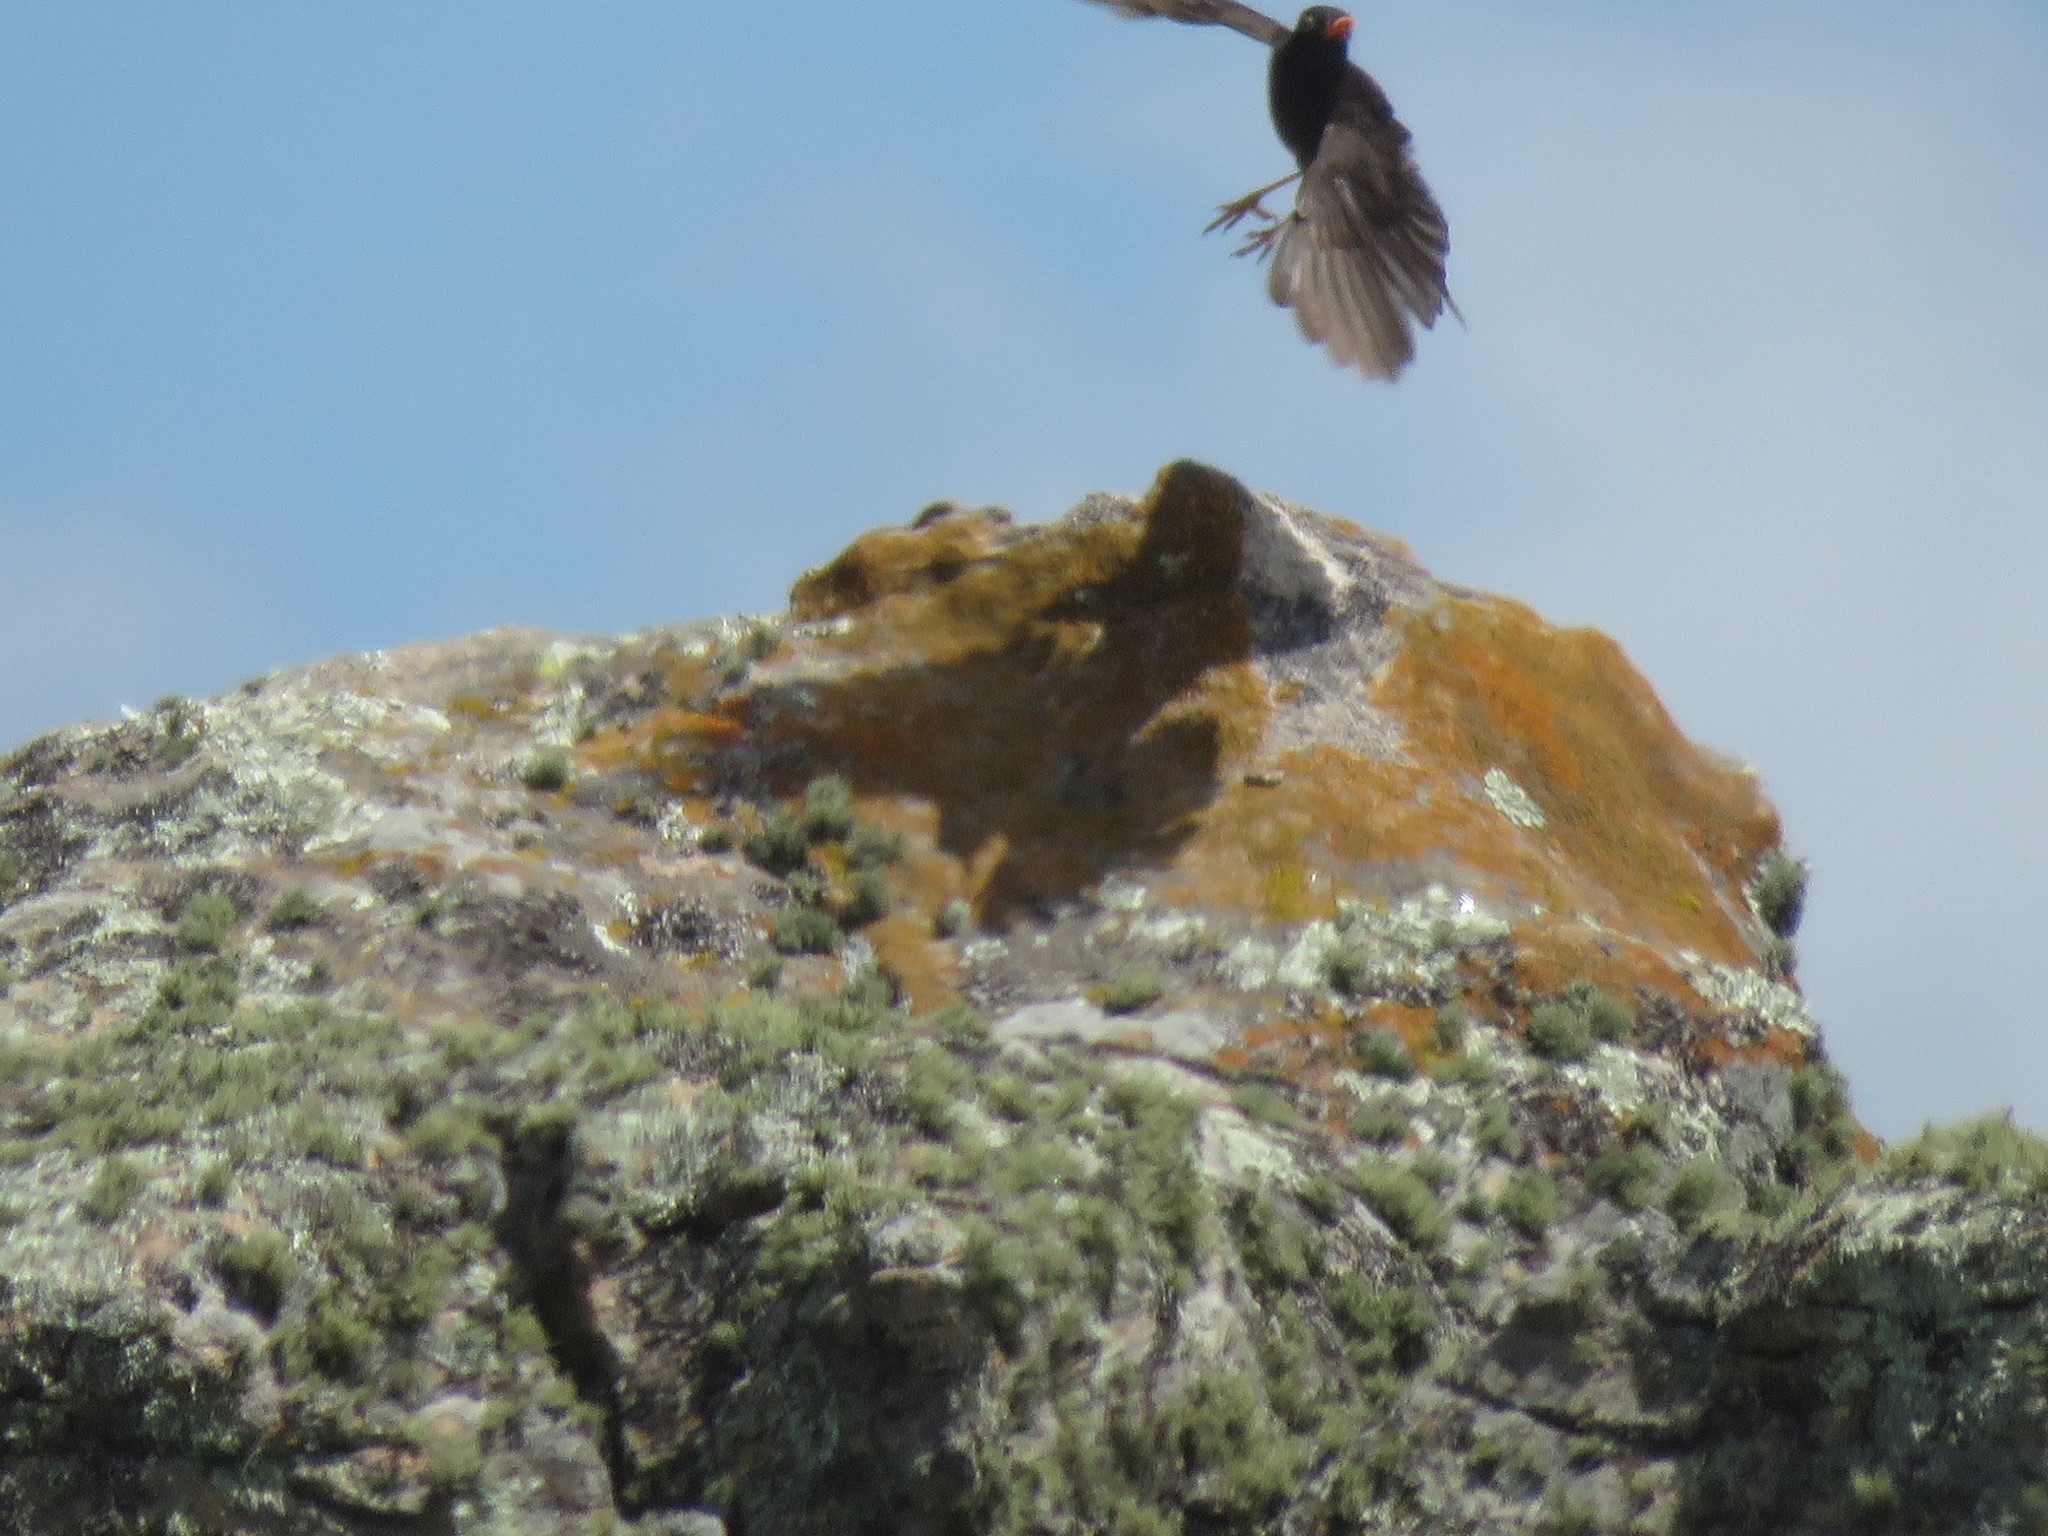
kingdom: Animalia
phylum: Chordata
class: Aves
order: Passeriformes
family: Turdidae
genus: Turdus
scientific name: Turdus chiguanco
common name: Chiguanco thrush
